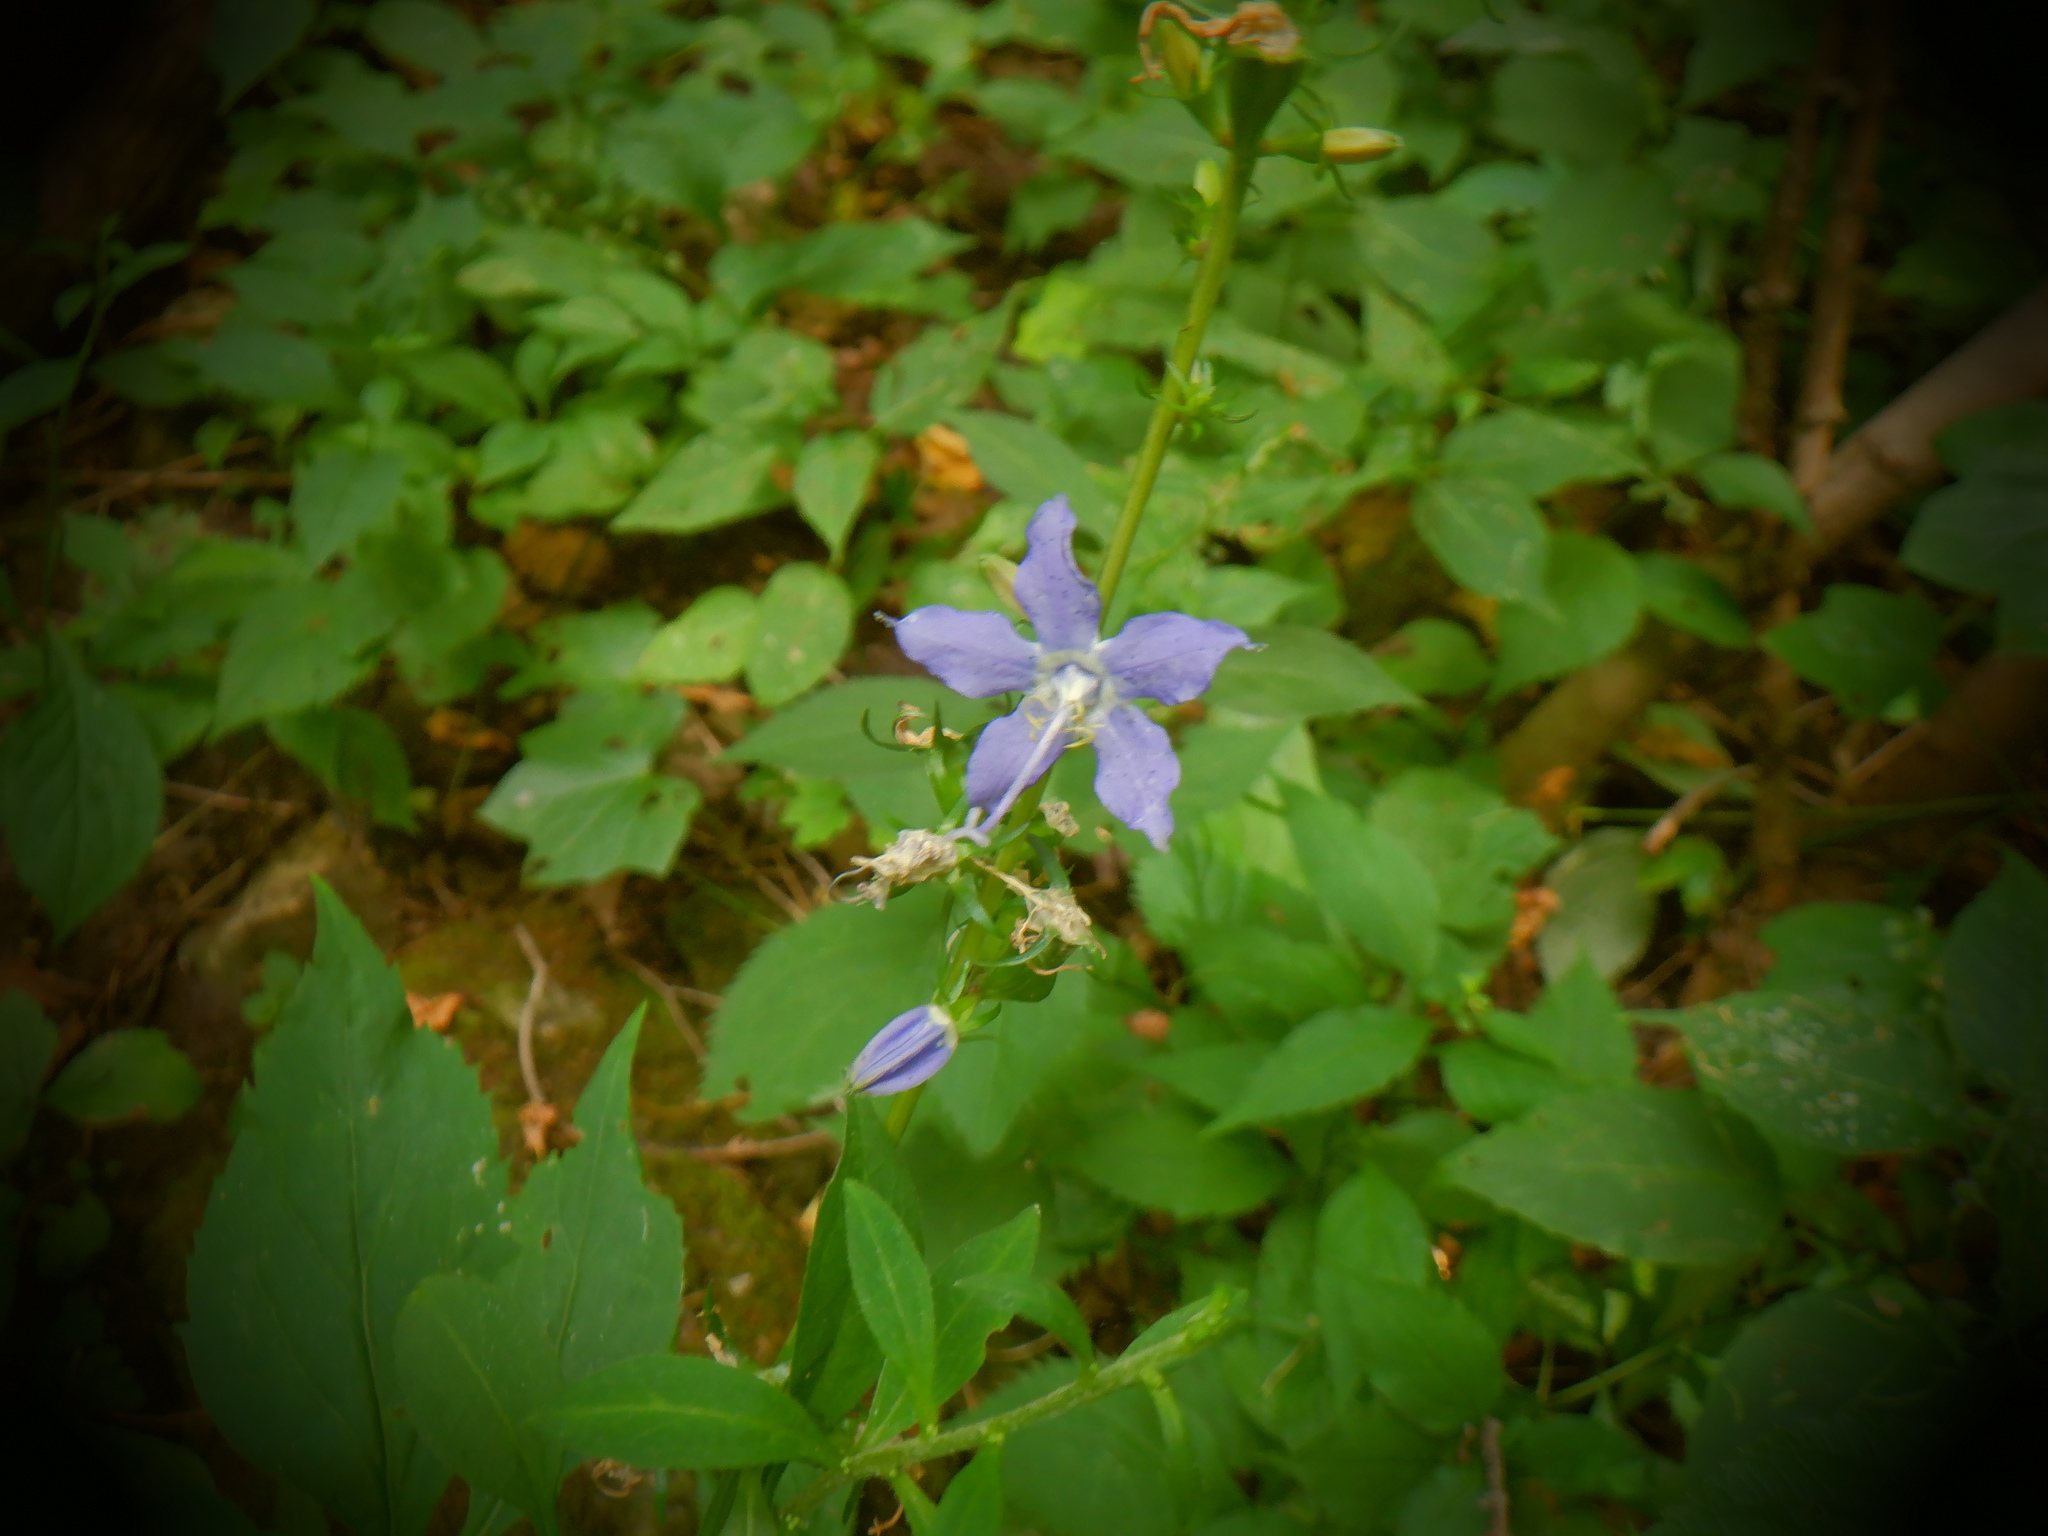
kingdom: Plantae
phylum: Tracheophyta
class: Magnoliopsida
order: Asterales
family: Campanulaceae
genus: Campanulastrum
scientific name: Campanulastrum americanum
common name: American bellflower
